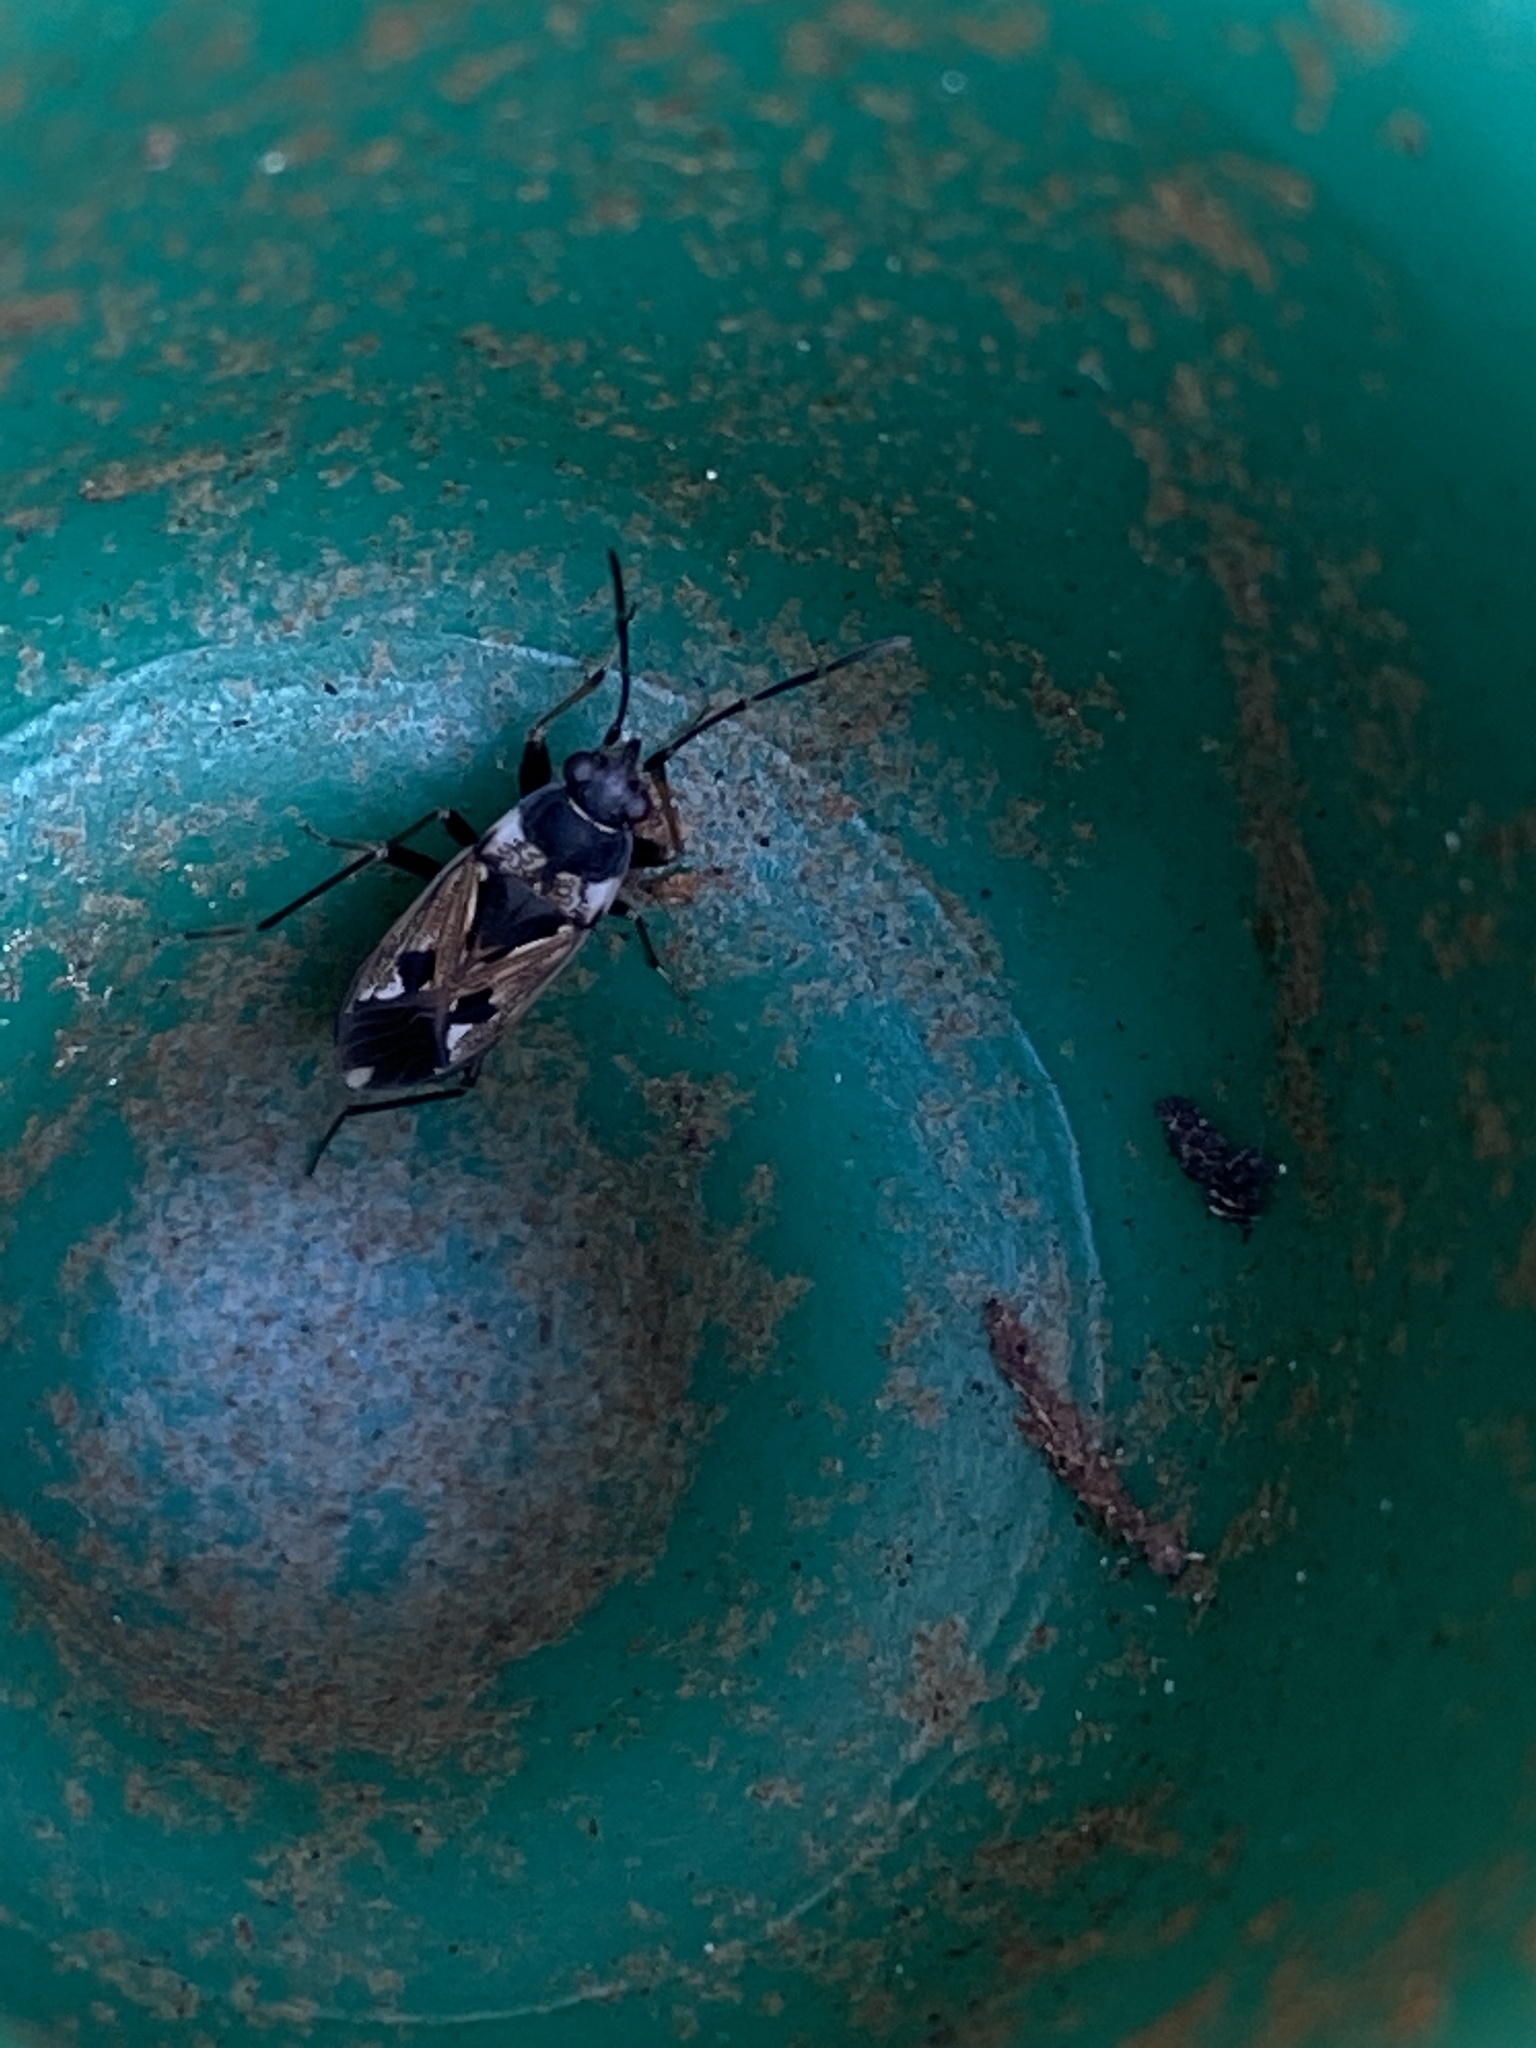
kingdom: Animalia
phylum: Arthropoda
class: Insecta
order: Hemiptera
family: Rhyparochromidae
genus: Rhyparochromus
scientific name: Rhyparochromus vulgaris
